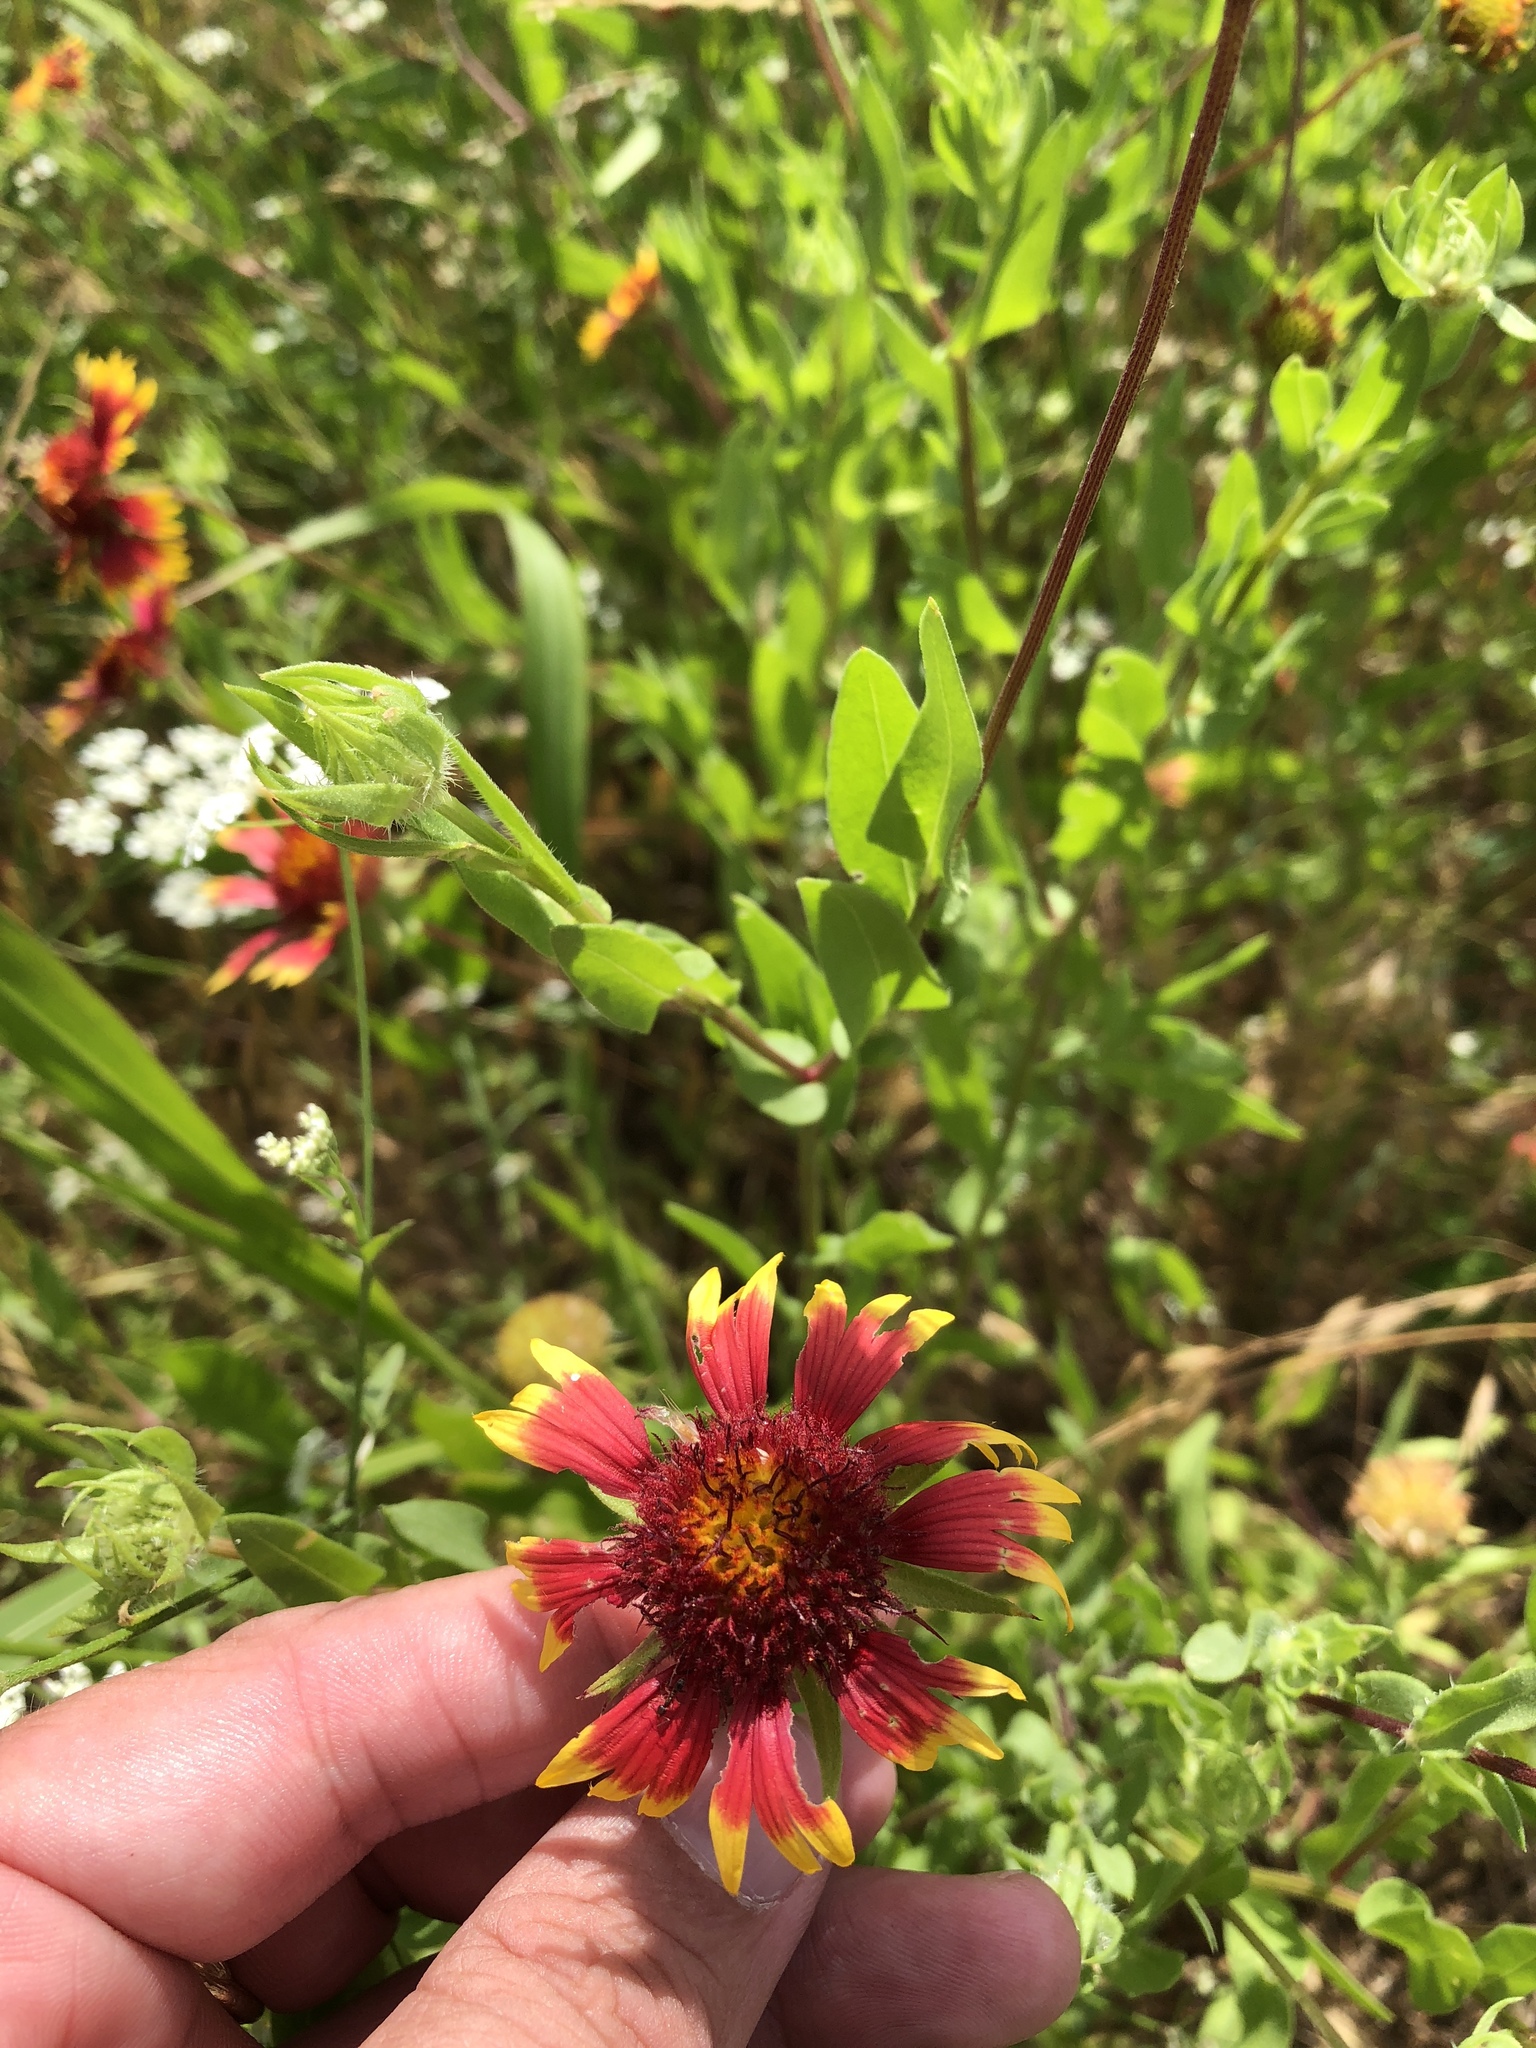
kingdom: Plantae
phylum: Tracheophyta
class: Magnoliopsida
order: Asterales
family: Asteraceae
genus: Gaillardia
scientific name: Gaillardia pulchella
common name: Firewheel
